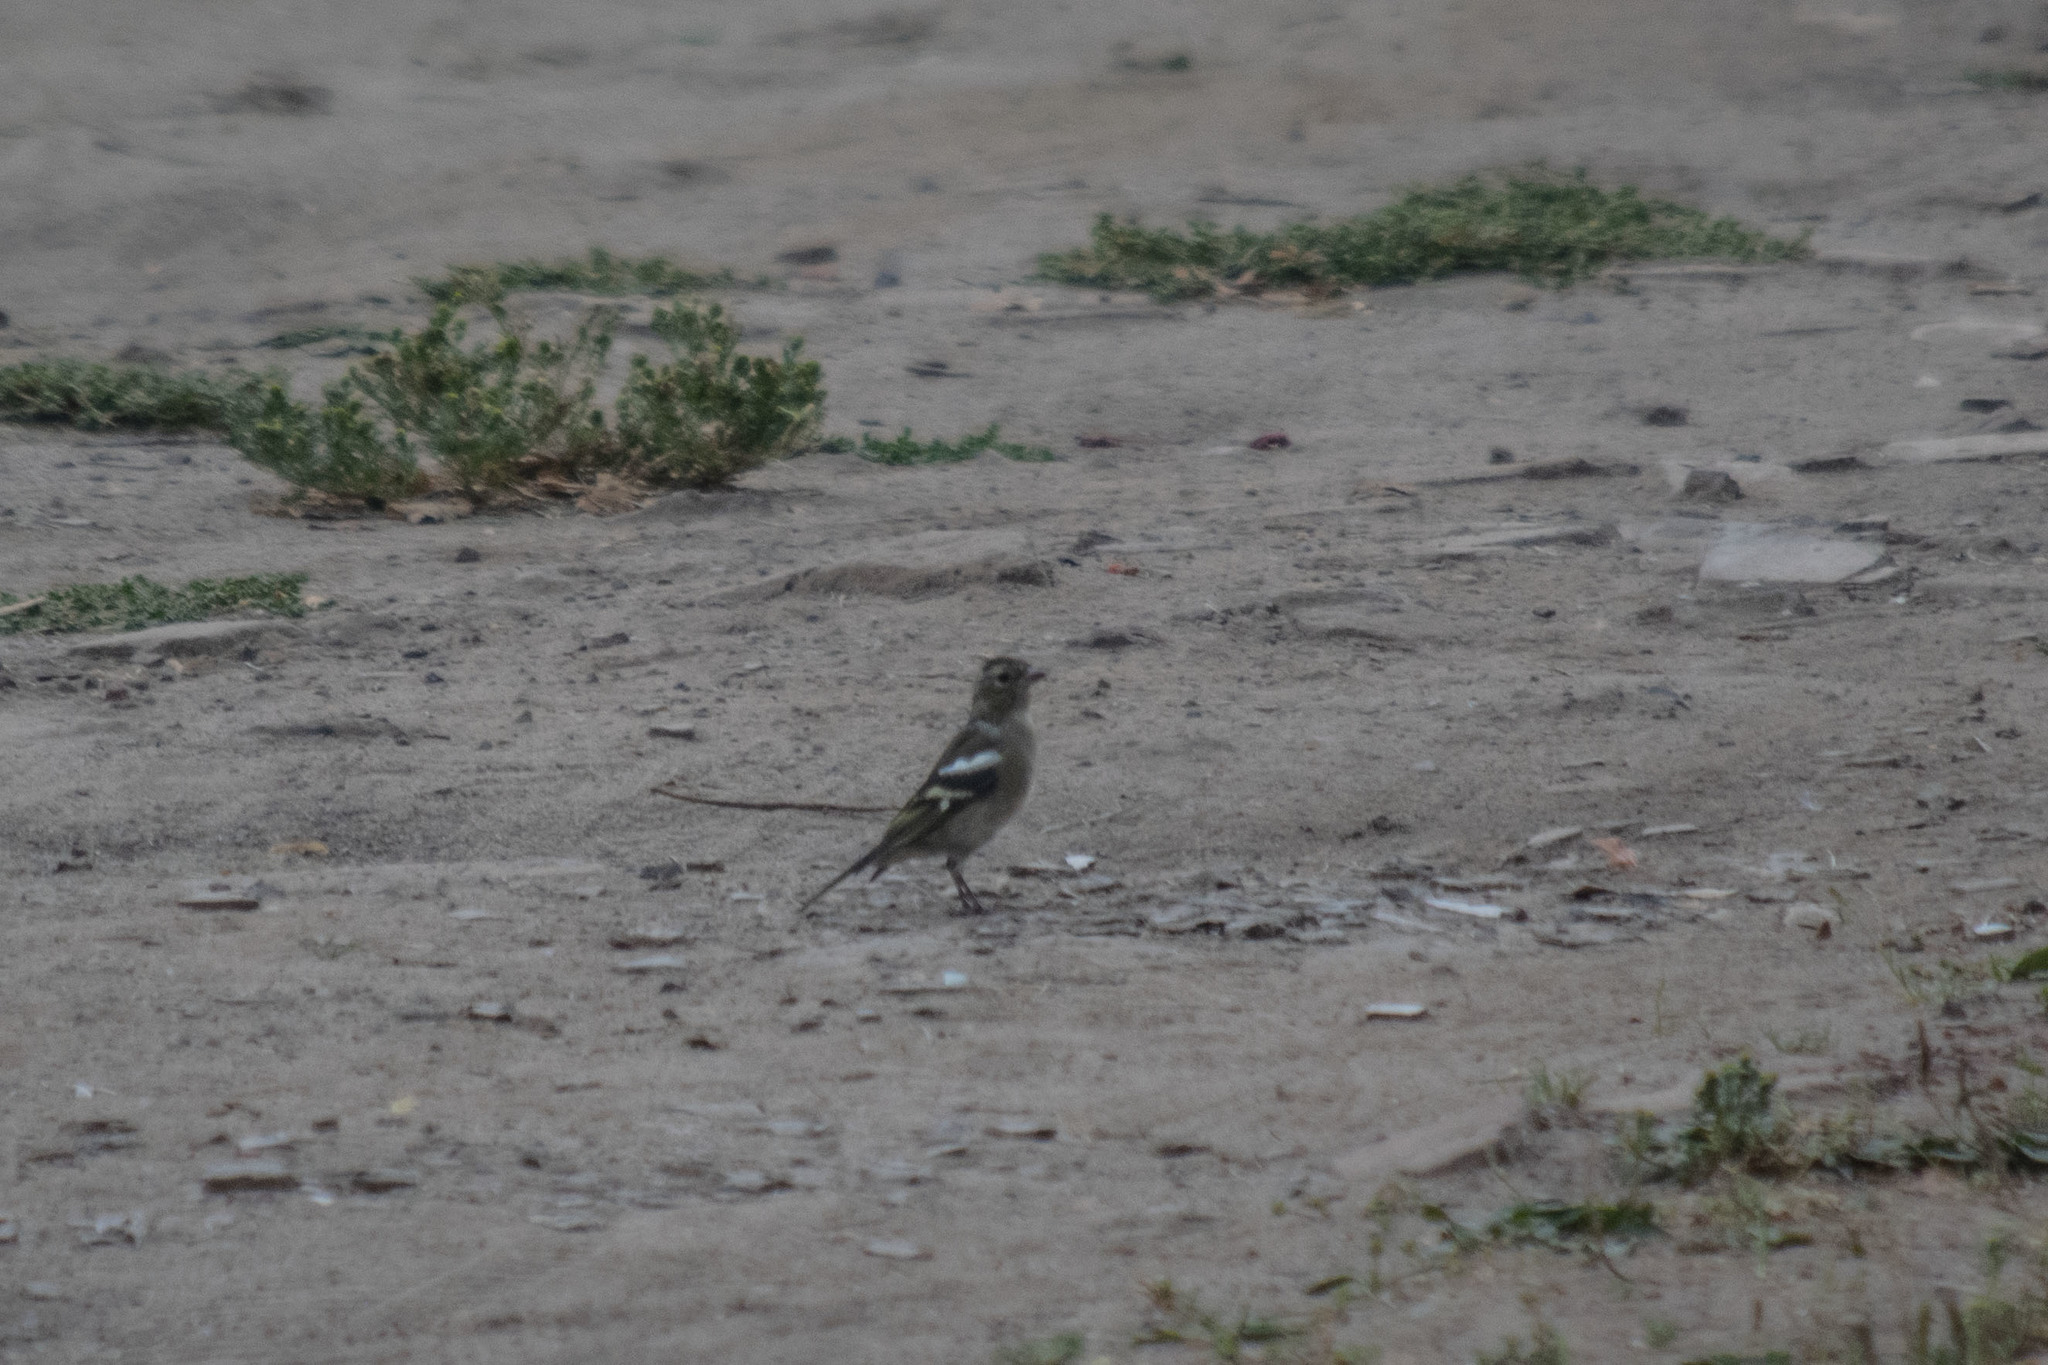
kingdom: Animalia
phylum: Chordata
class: Aves
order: Passeriformes
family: Fringillidae
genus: Fringilla
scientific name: Fringilla coelebs
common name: Common chaffinch
